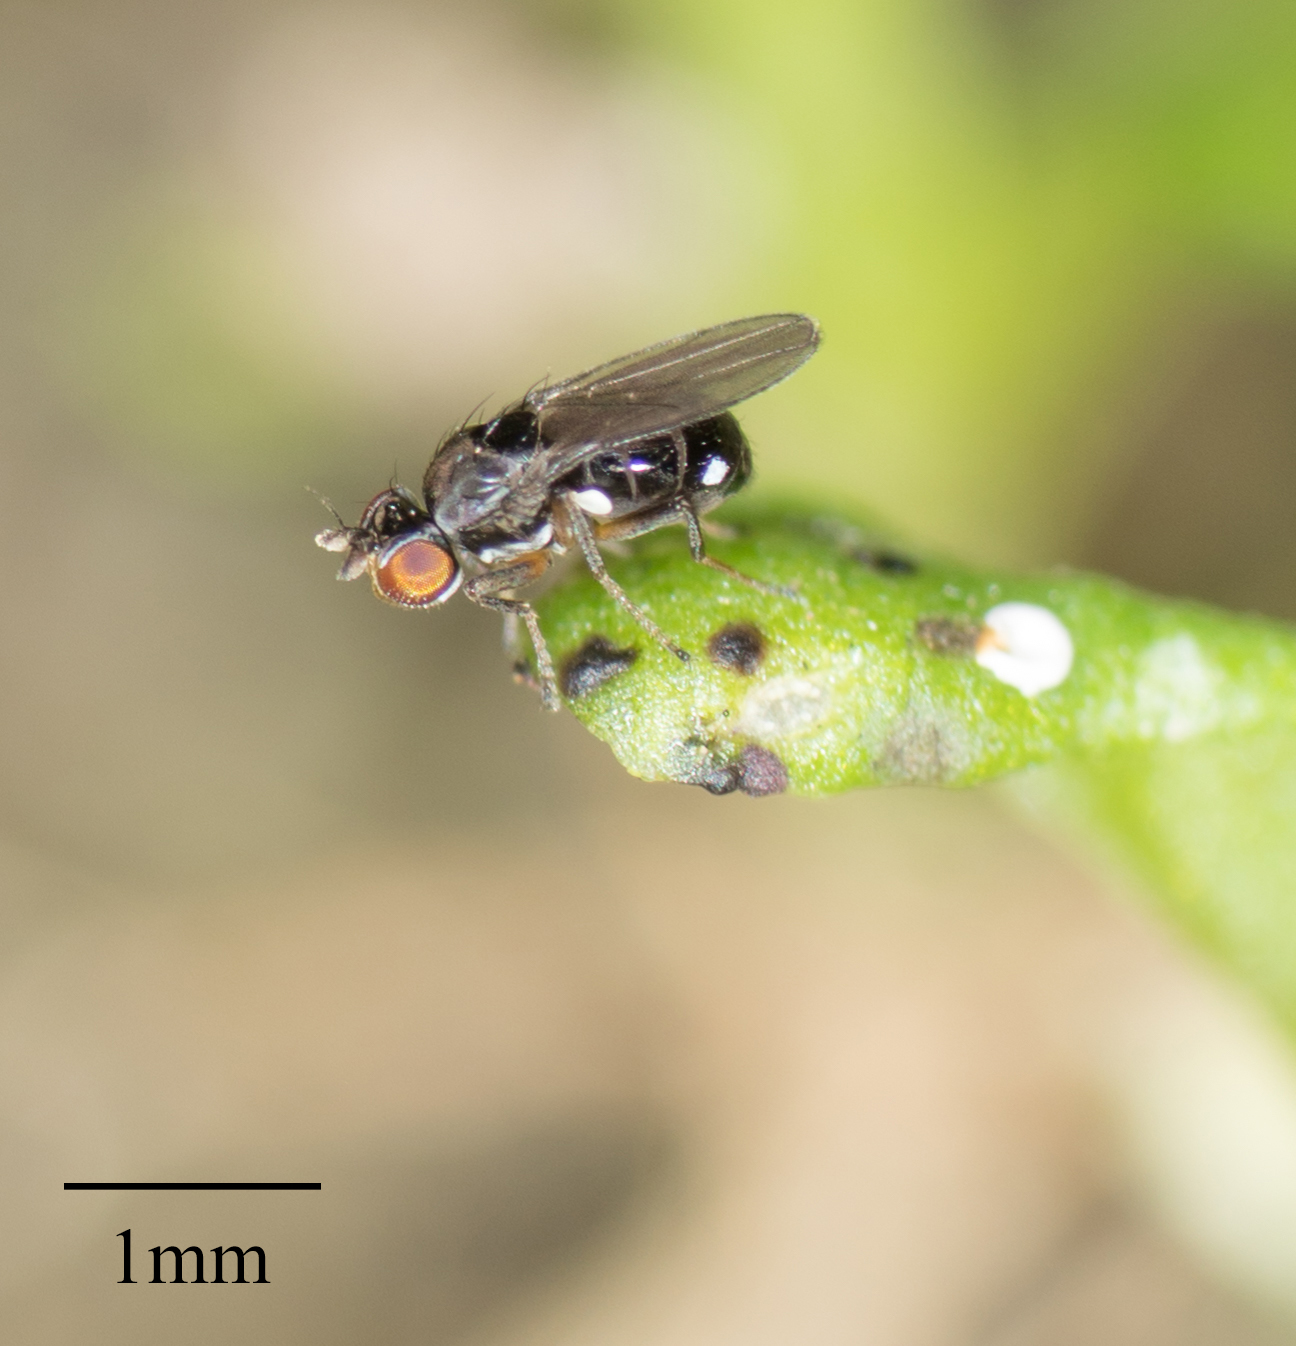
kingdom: Animalia
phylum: Arthropoda
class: Insecta
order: Diptera
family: Ephydridae
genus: Nostima
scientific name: Nostima picta
